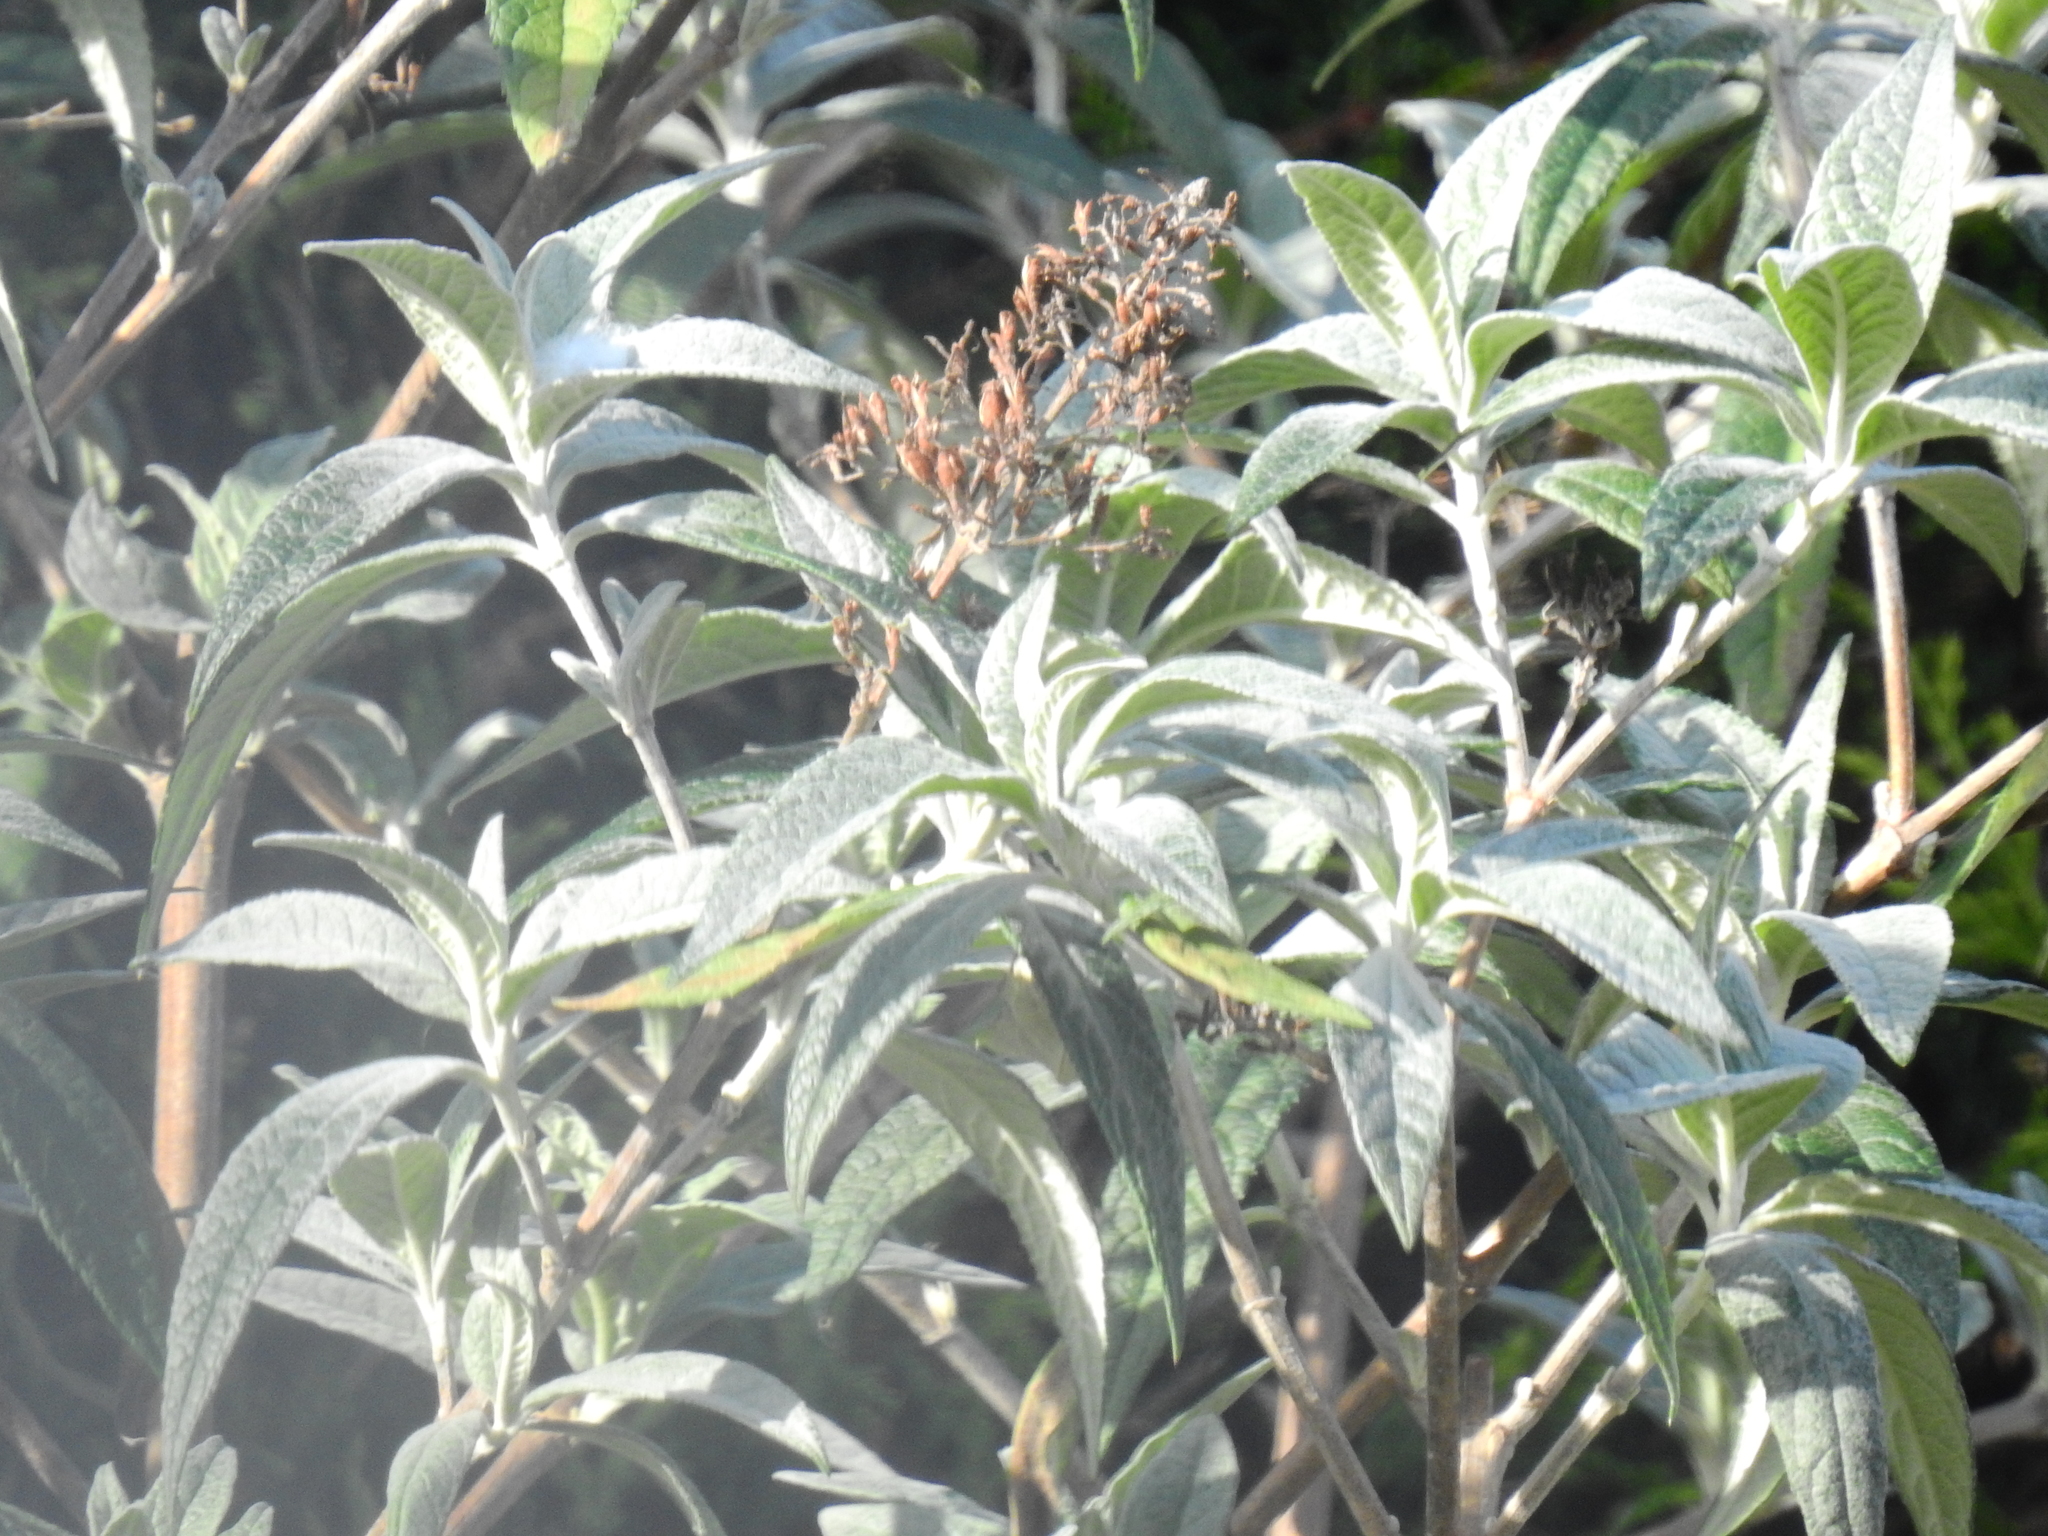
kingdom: Plantae
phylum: Tracheophyta
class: Magnoliopsida
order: Lamiales
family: Scrophulariaceae
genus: Buddleja
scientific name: Buddleja davidii
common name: Butterfly-bush
